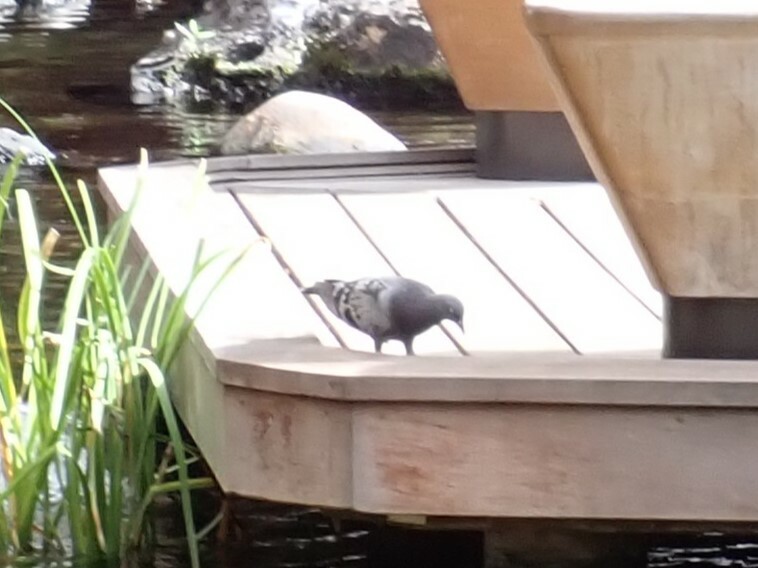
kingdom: Animalia
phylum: Chordata
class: Aves
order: Columbiformes
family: Columbidae
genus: Columba
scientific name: Columba livia
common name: Rock pigeon
